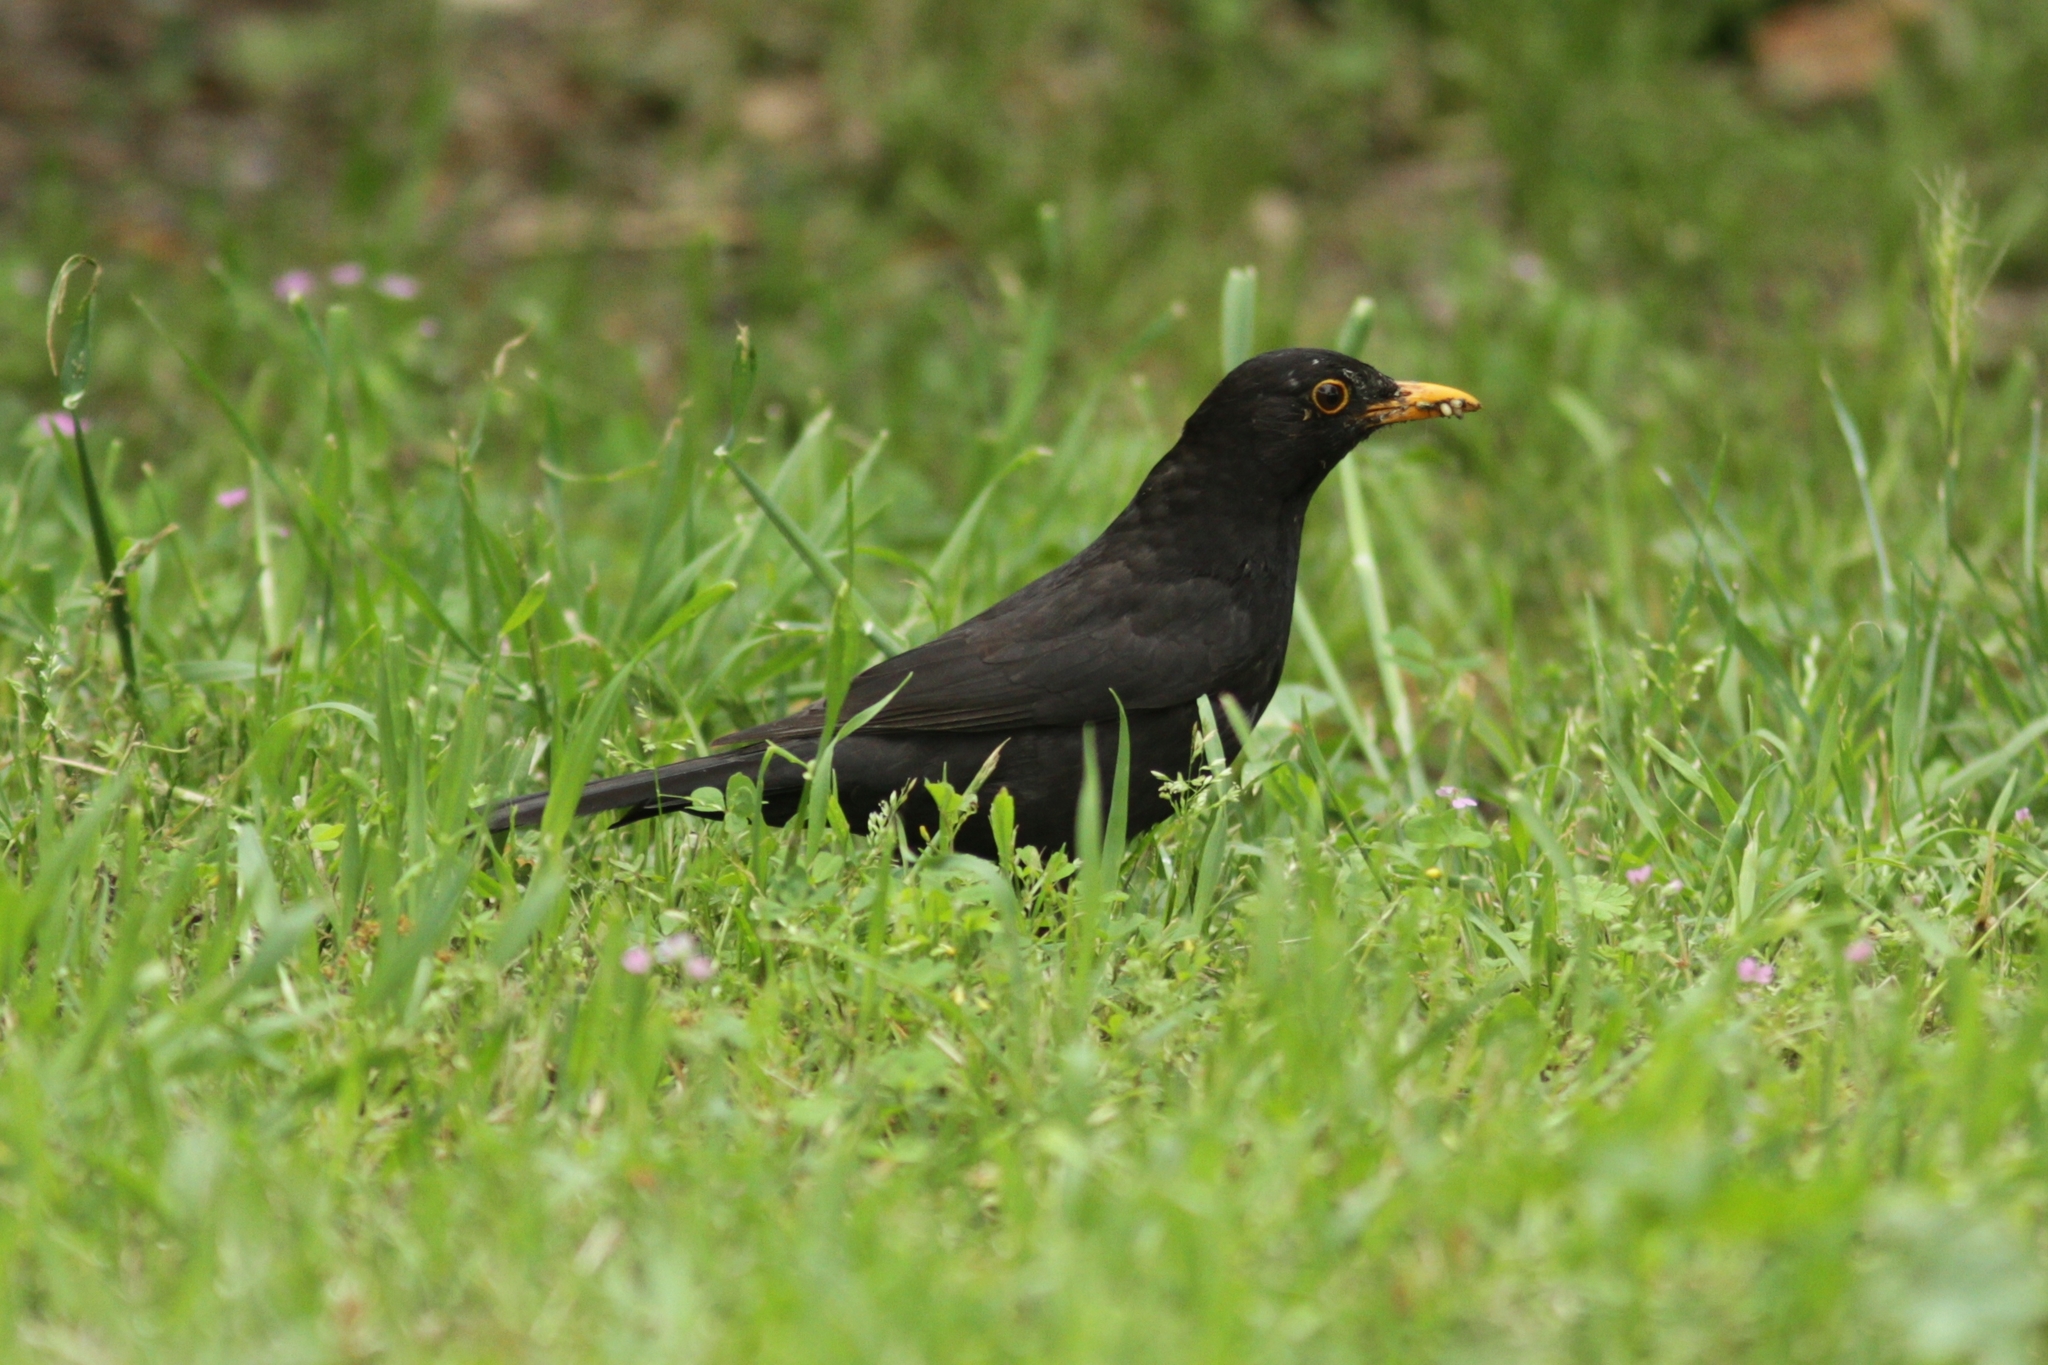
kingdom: Animalia
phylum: Chordata
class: Aves
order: Passeriformes
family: Turdidae
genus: Turdus
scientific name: Turdus merula
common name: Common blackbird
